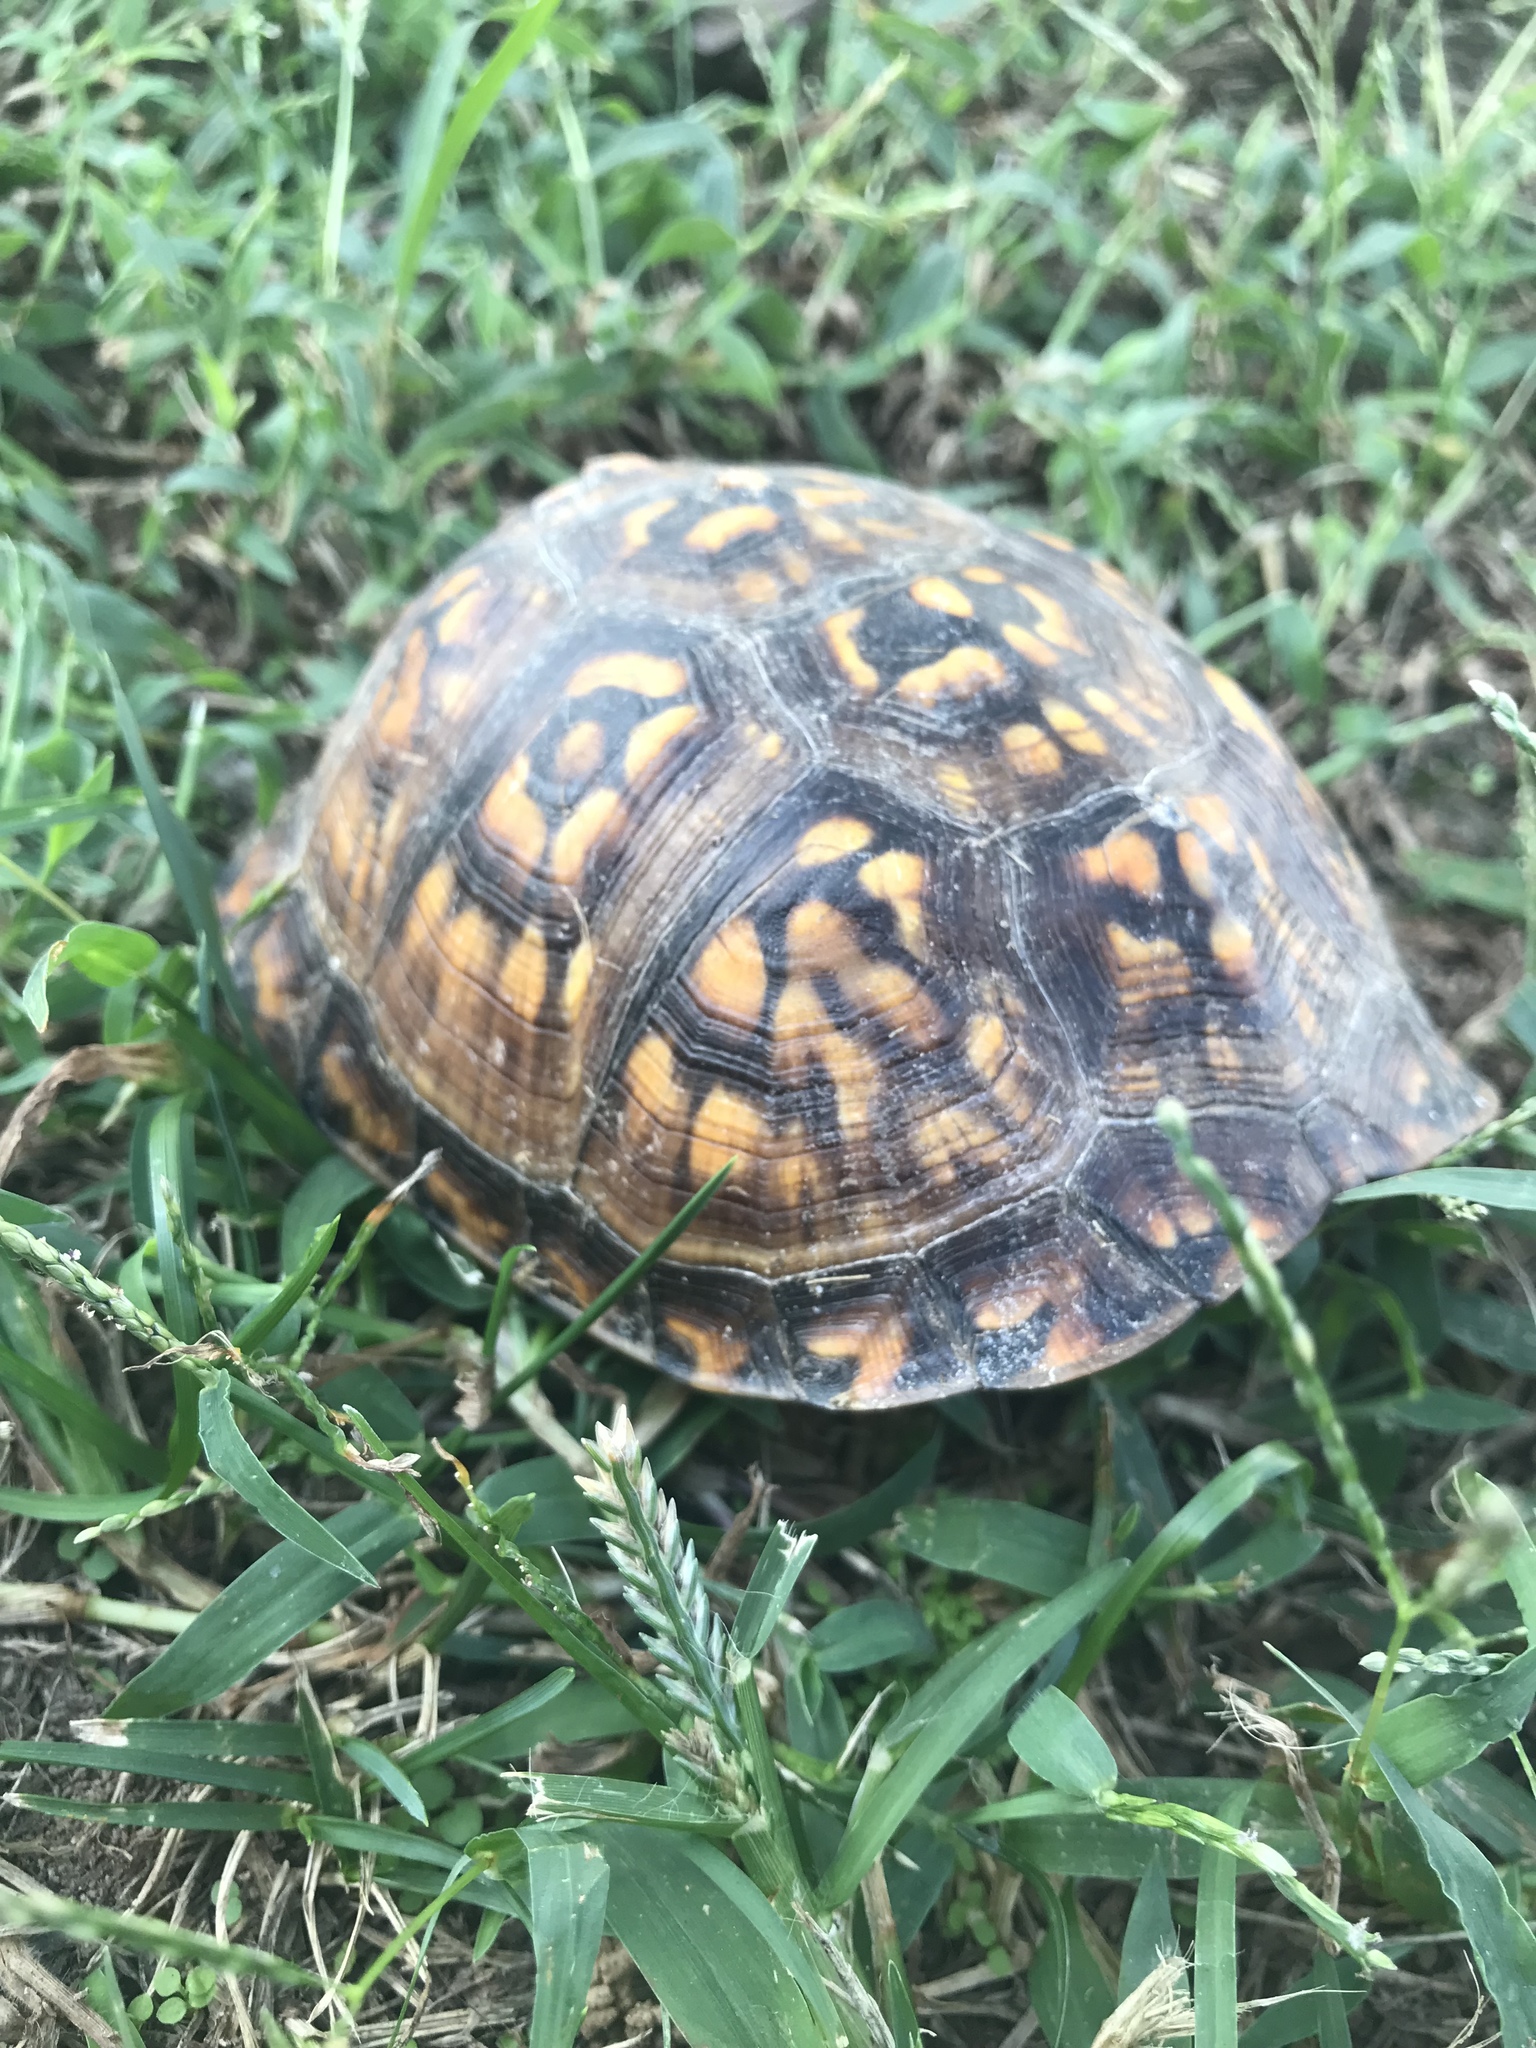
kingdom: Animalia
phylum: Chordata
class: Testudines
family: Emydidae
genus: Terrapene
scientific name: Terrapene carolina
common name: Common box turtle
